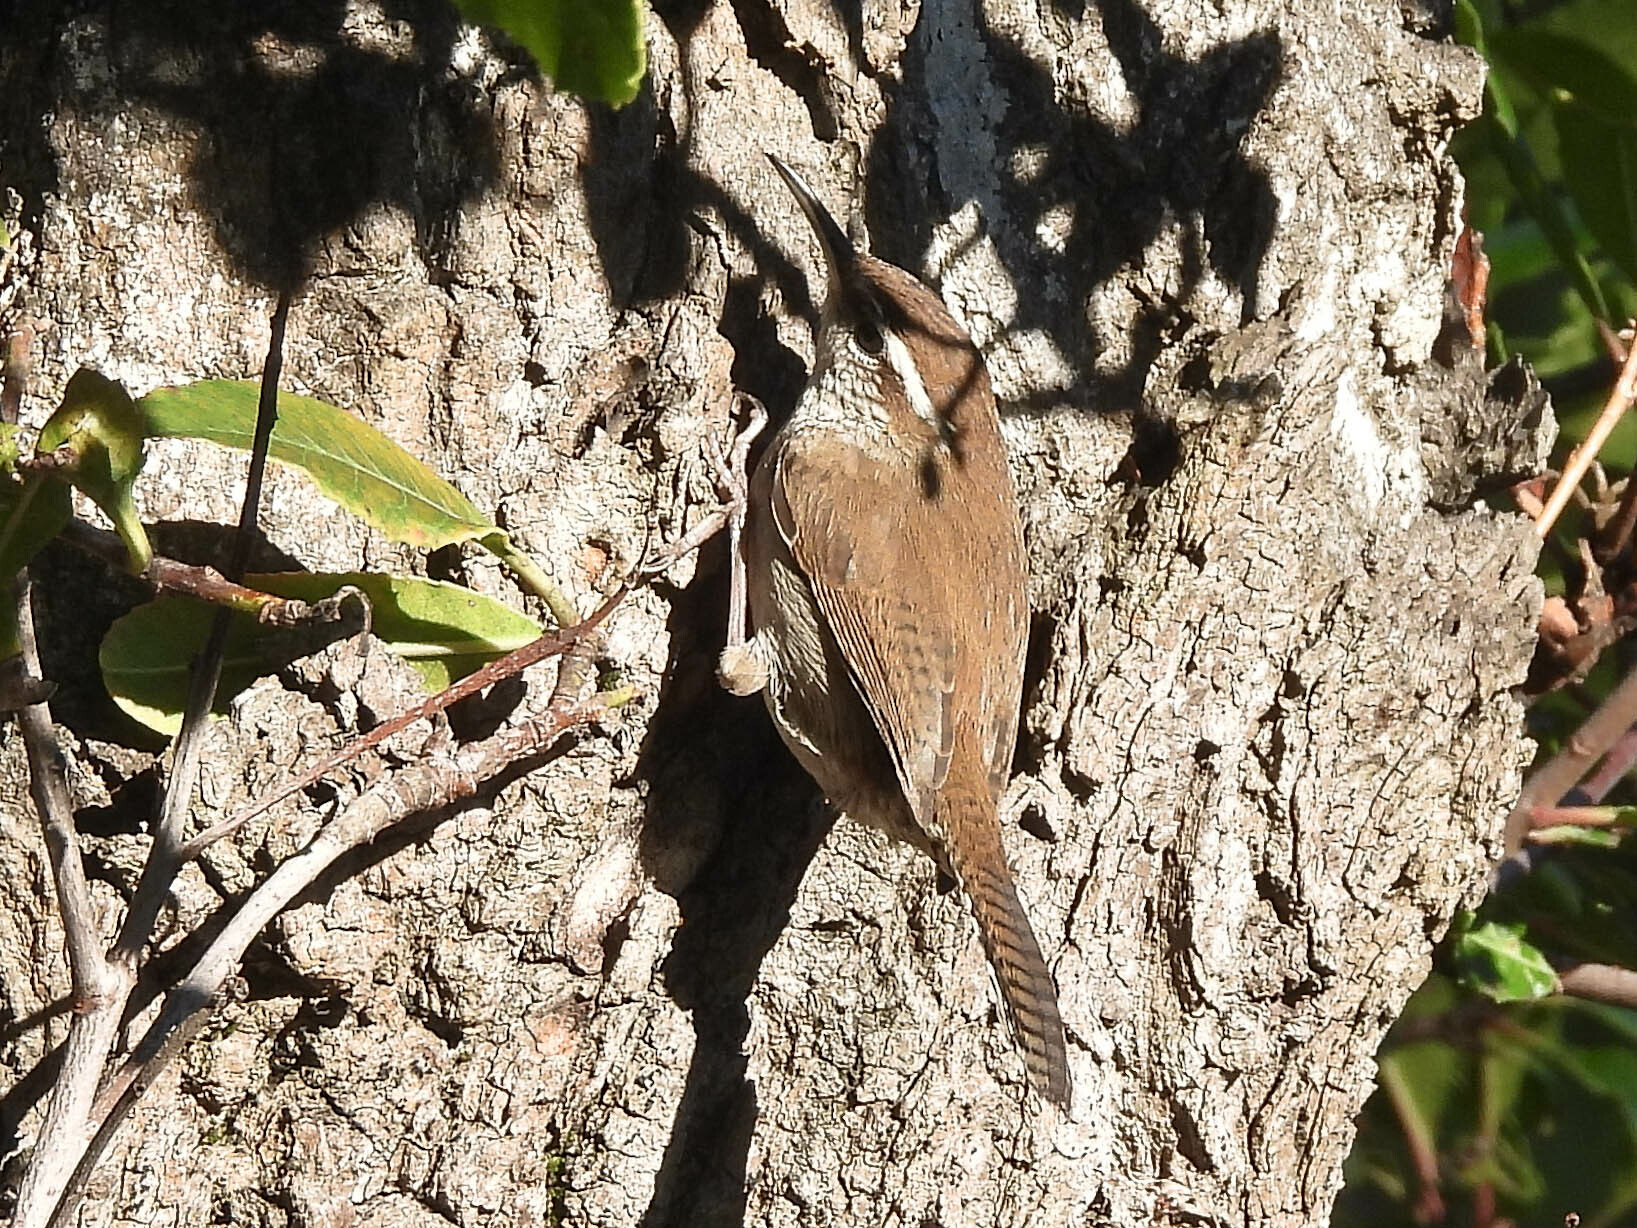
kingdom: Animalia
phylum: Chordata
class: Aves
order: Passeriformes
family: Troglodytidae
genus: Thryomanes
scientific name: Thryomanes bewickii
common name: Bewick's wren
